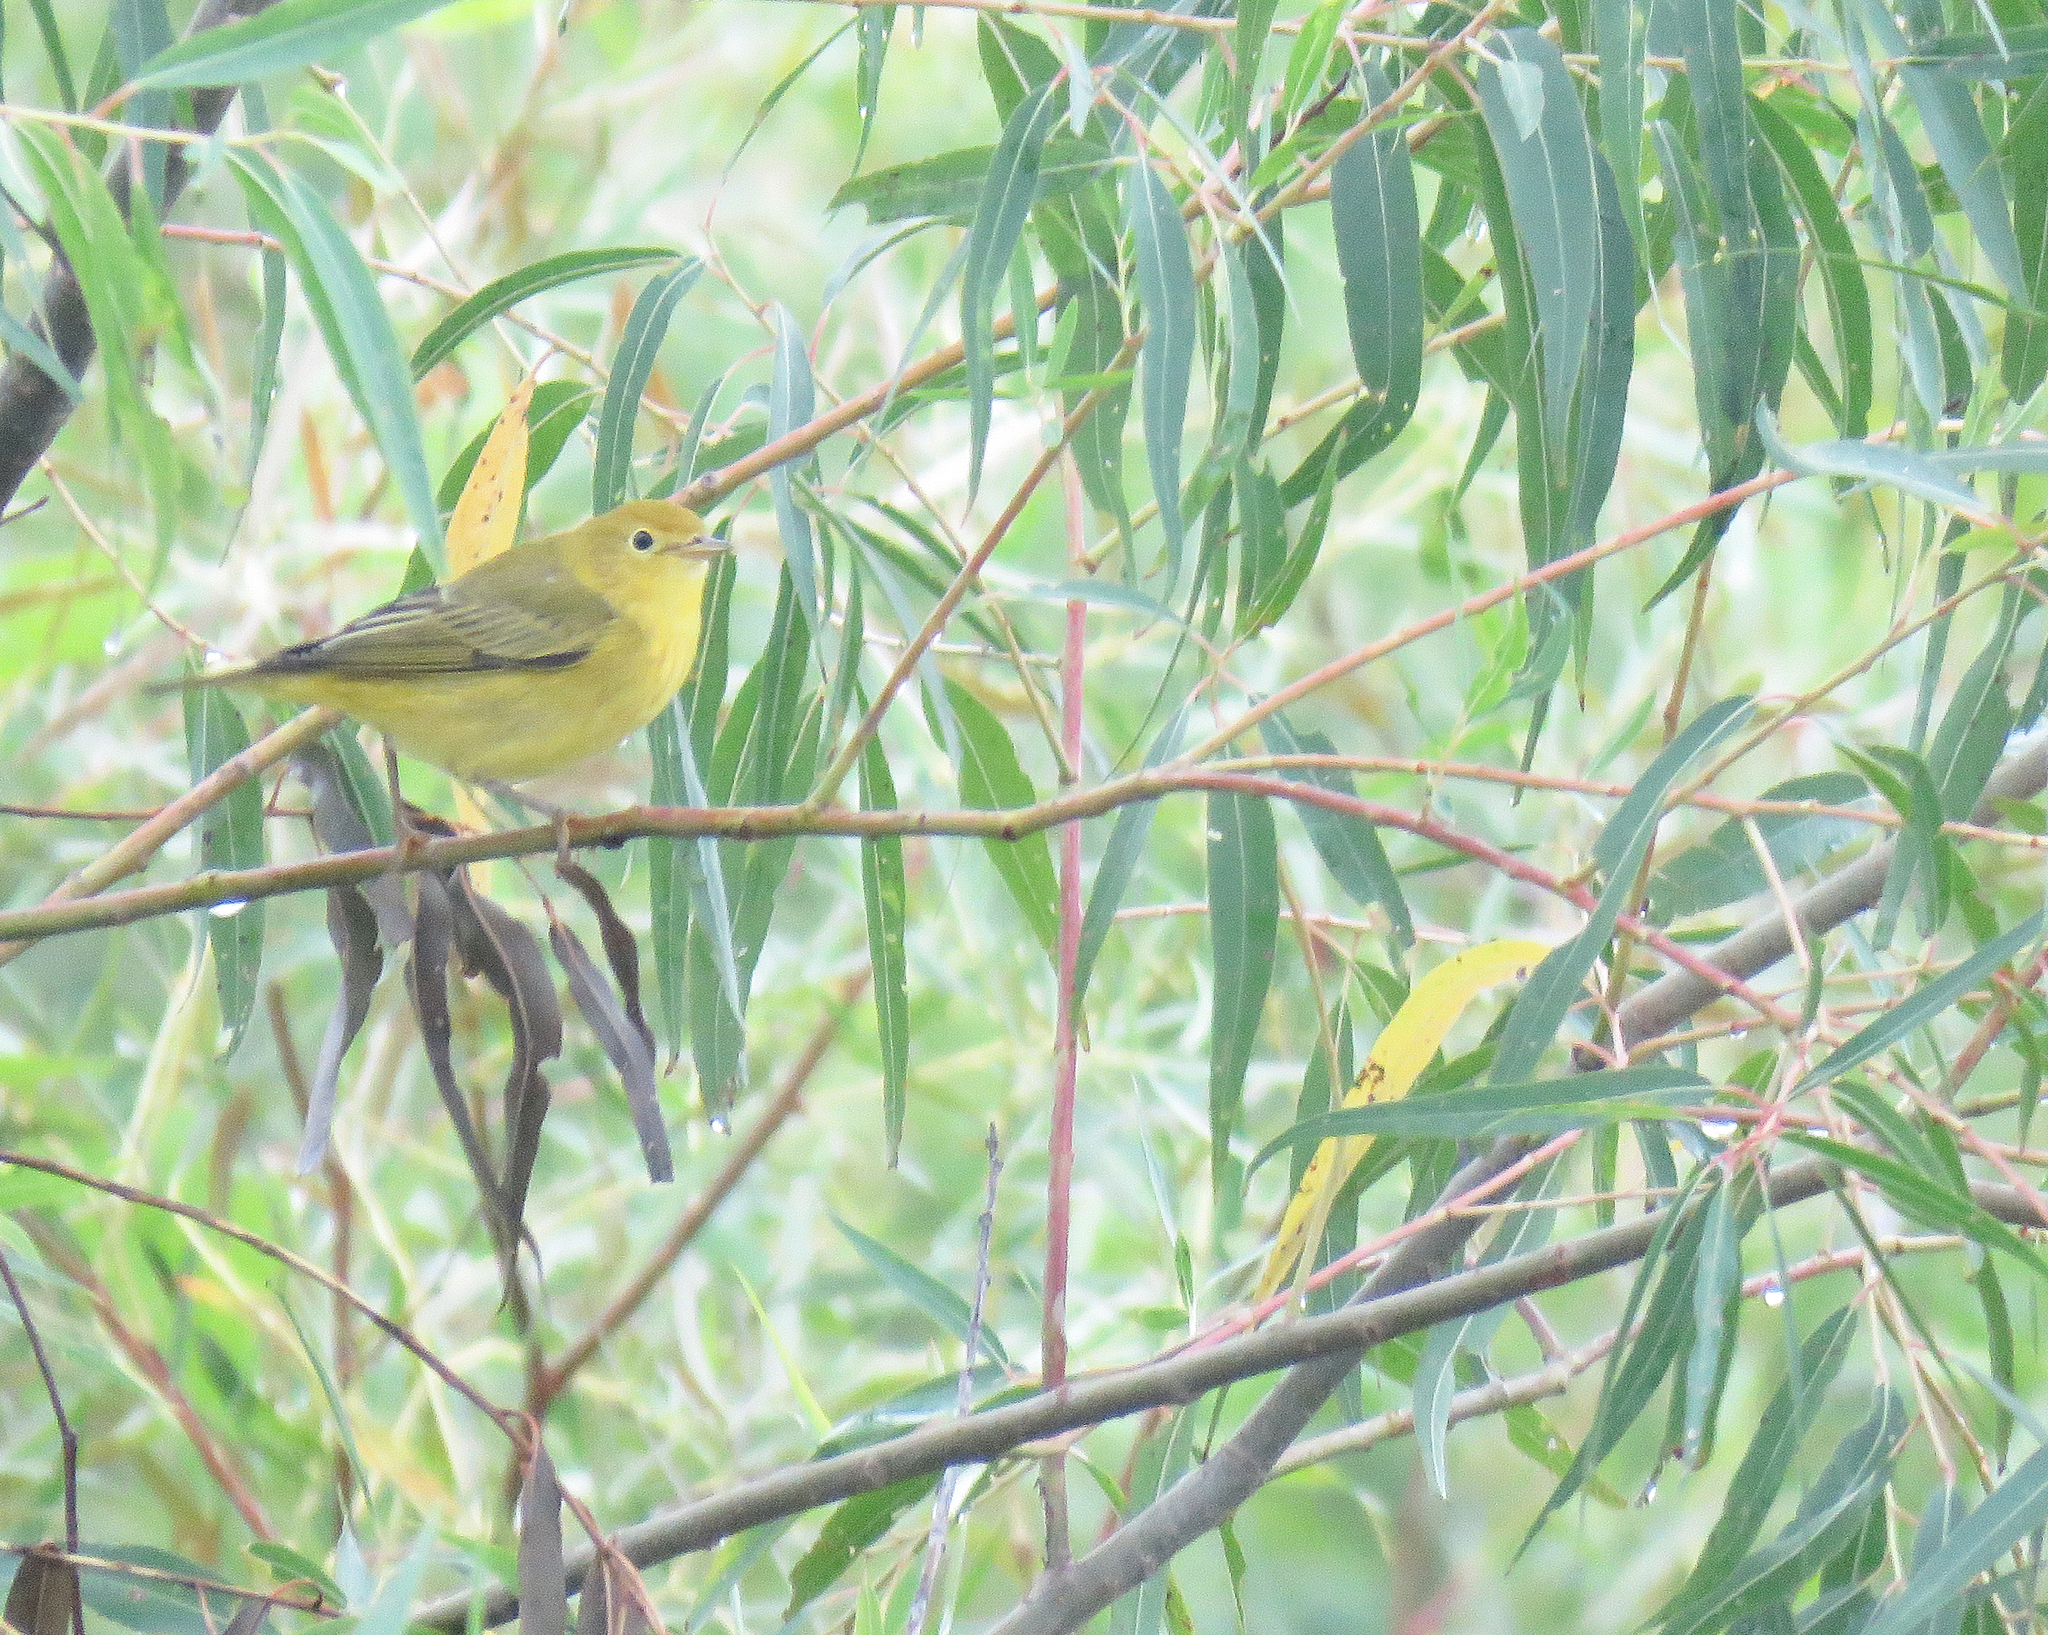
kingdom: Animalia
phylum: Chordata
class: Aves
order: Passeriformes
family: Parulidae
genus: Setophaga
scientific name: Setophaga petechia
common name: Yellow warbler
